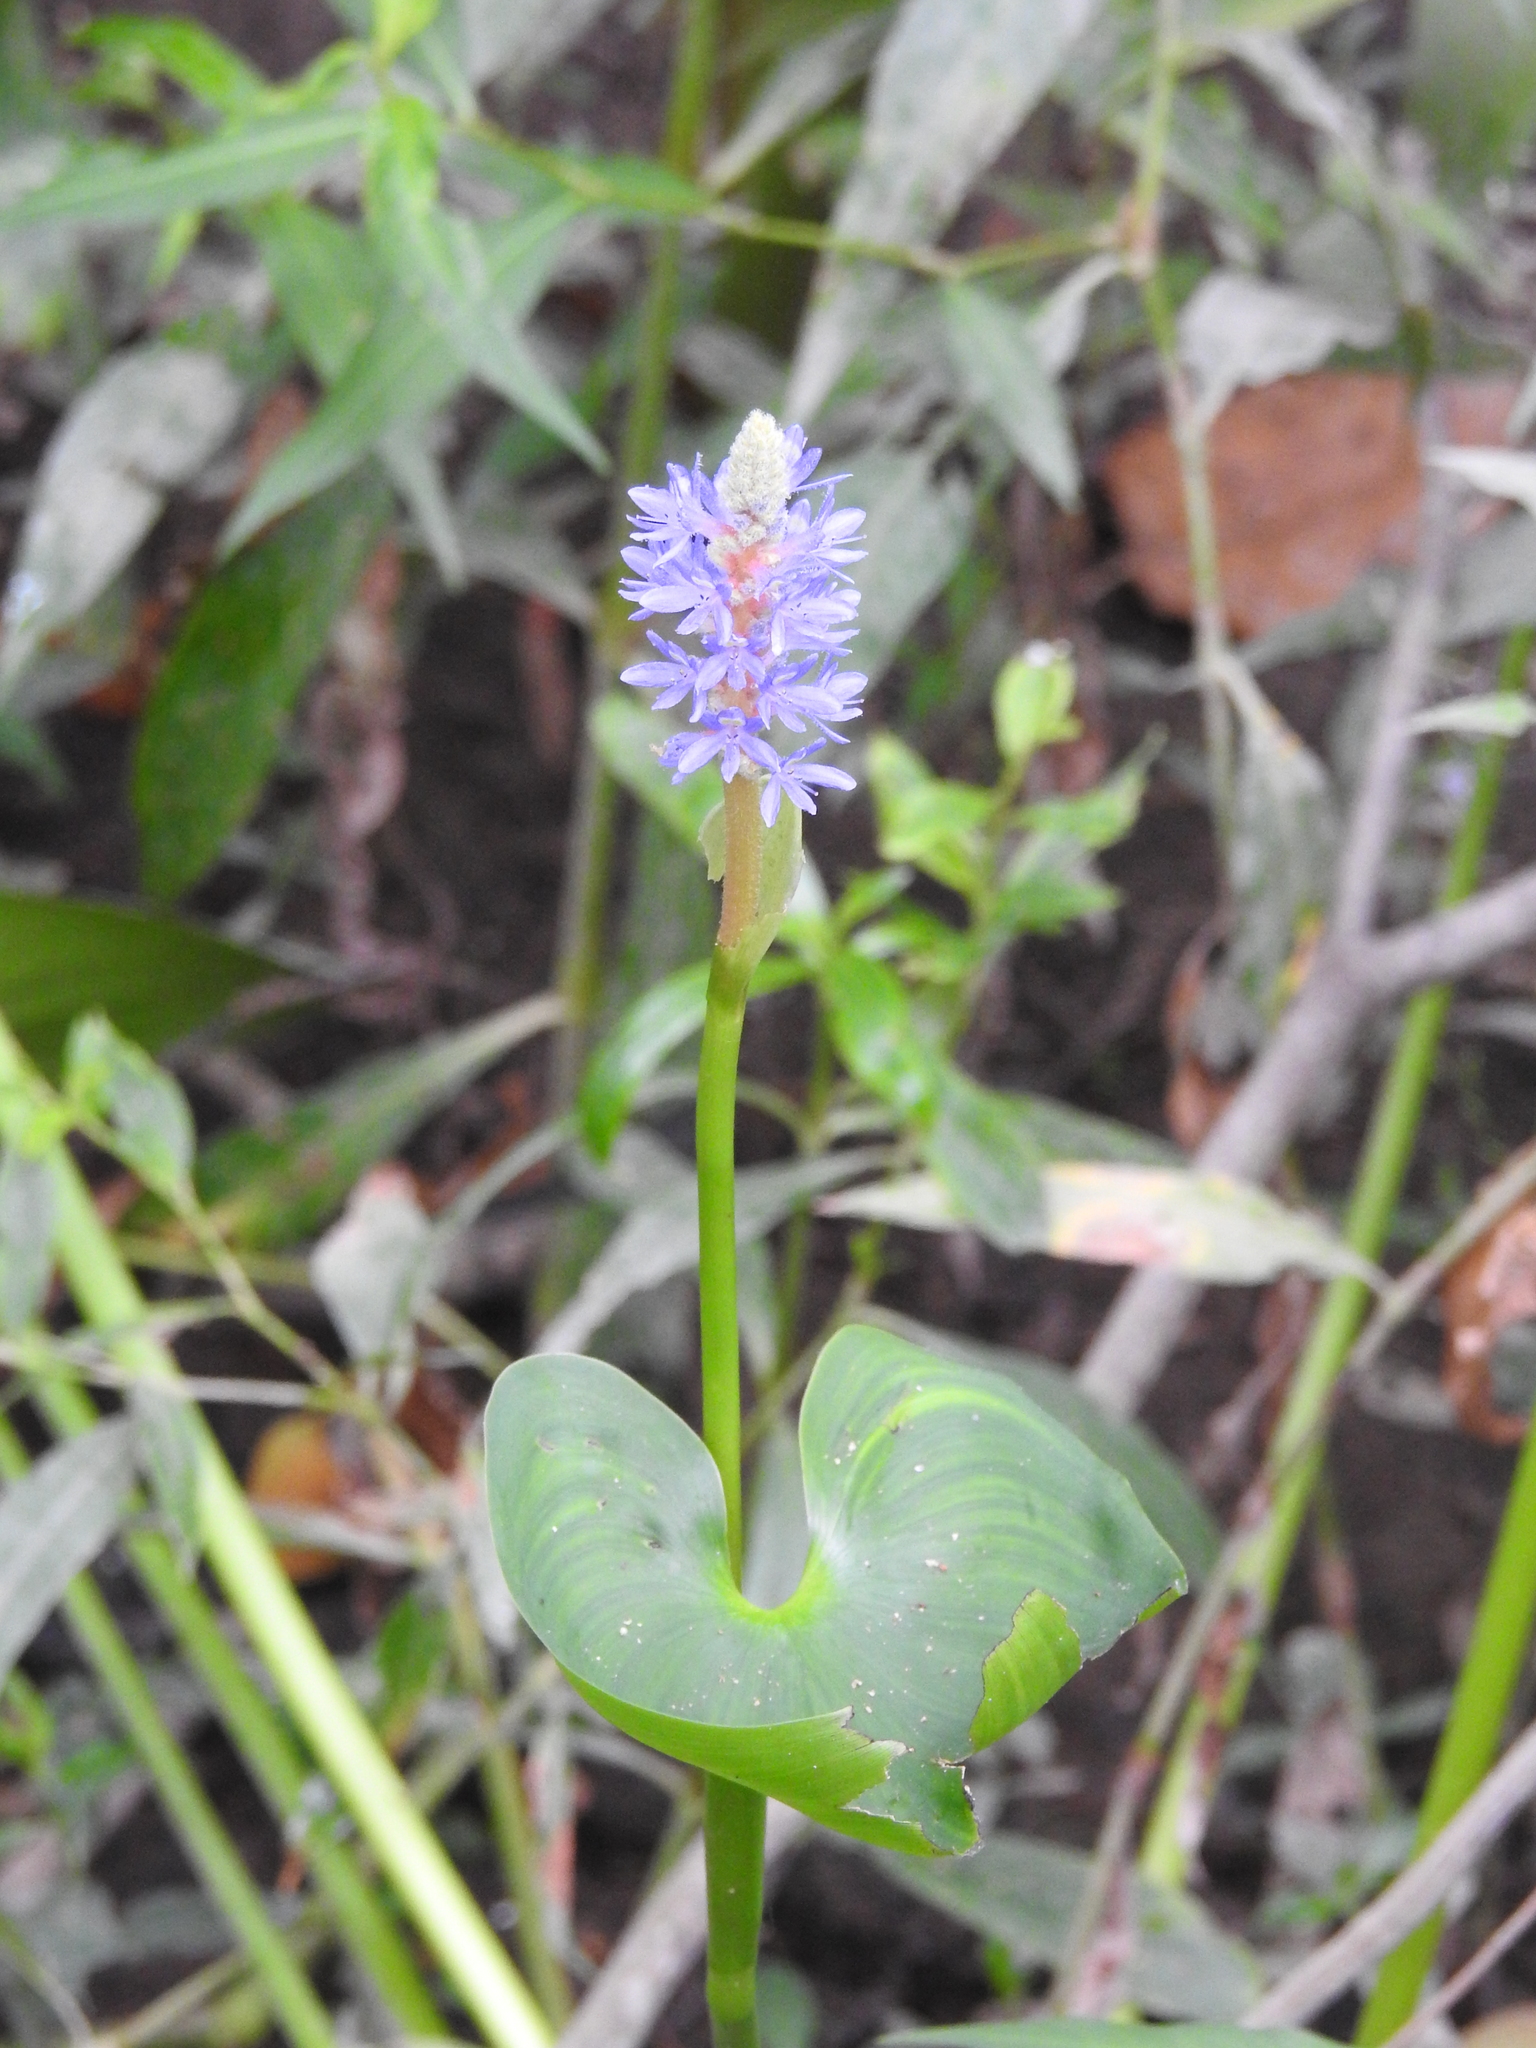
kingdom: Plantae
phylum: Tracheophyta
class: Liliopsida
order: Commelinales
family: Pontederiaceae
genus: Pontederia
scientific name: Pontederia cordata
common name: Pickerelweed
